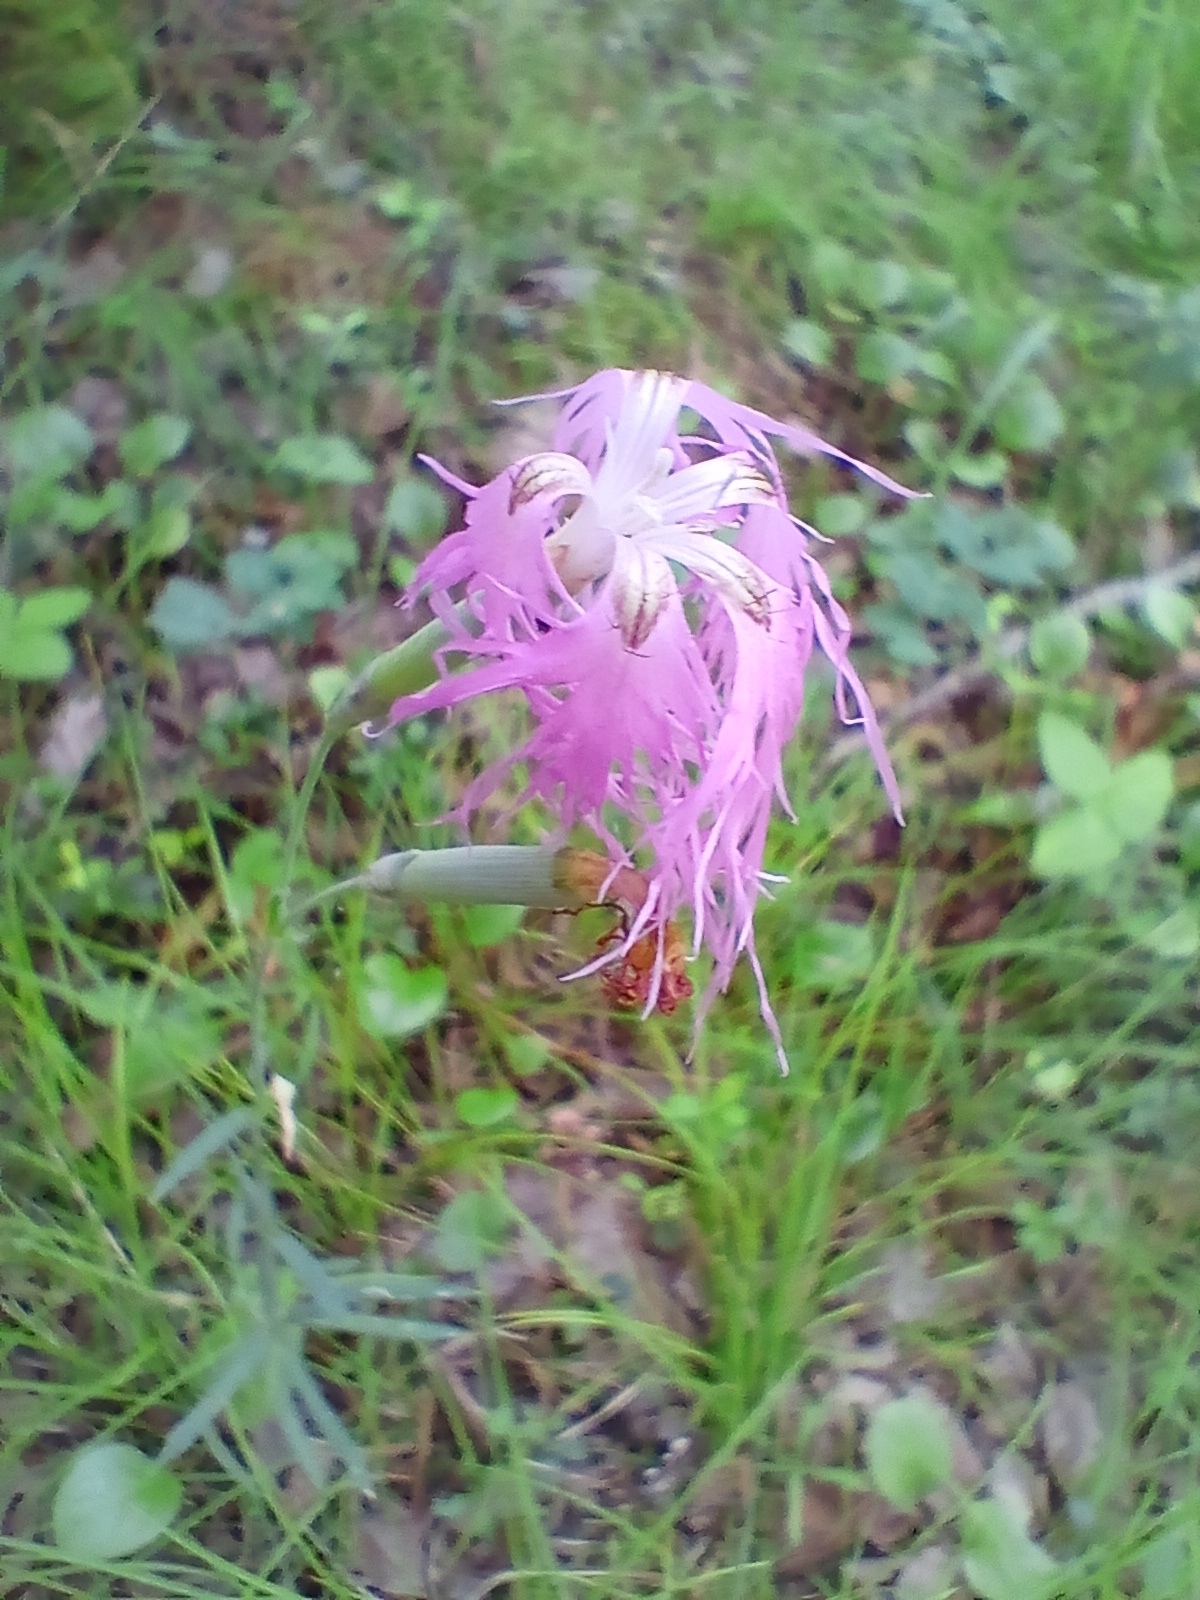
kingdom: Plantae
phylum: Tracheophyta
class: Magnoliopsida
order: Caryophyllales
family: Caryophyllaceae
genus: Dianthus
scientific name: Dianthus superbus
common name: Fringed pink
